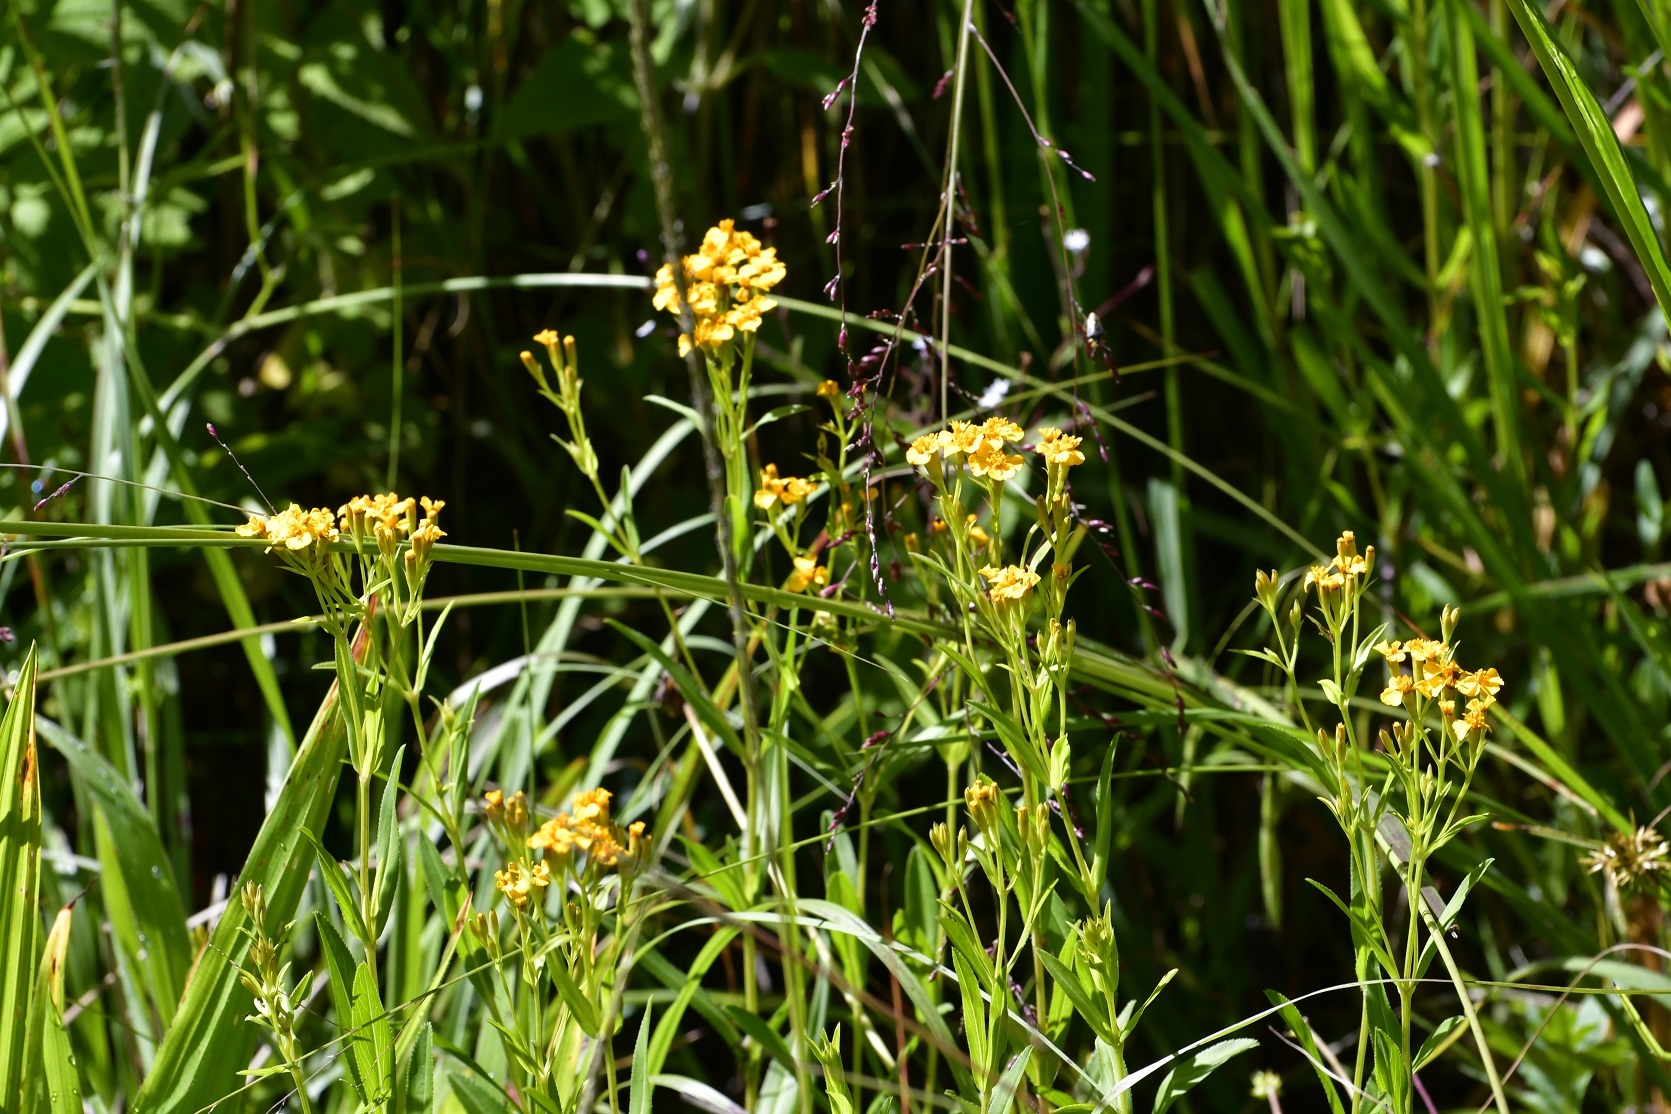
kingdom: Plantae
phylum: Tracheophyta
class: Magnoliopsida
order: Asterales
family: Asteraceae
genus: Tagetes
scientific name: Tagetes lucida
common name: Sweetscented marigold
